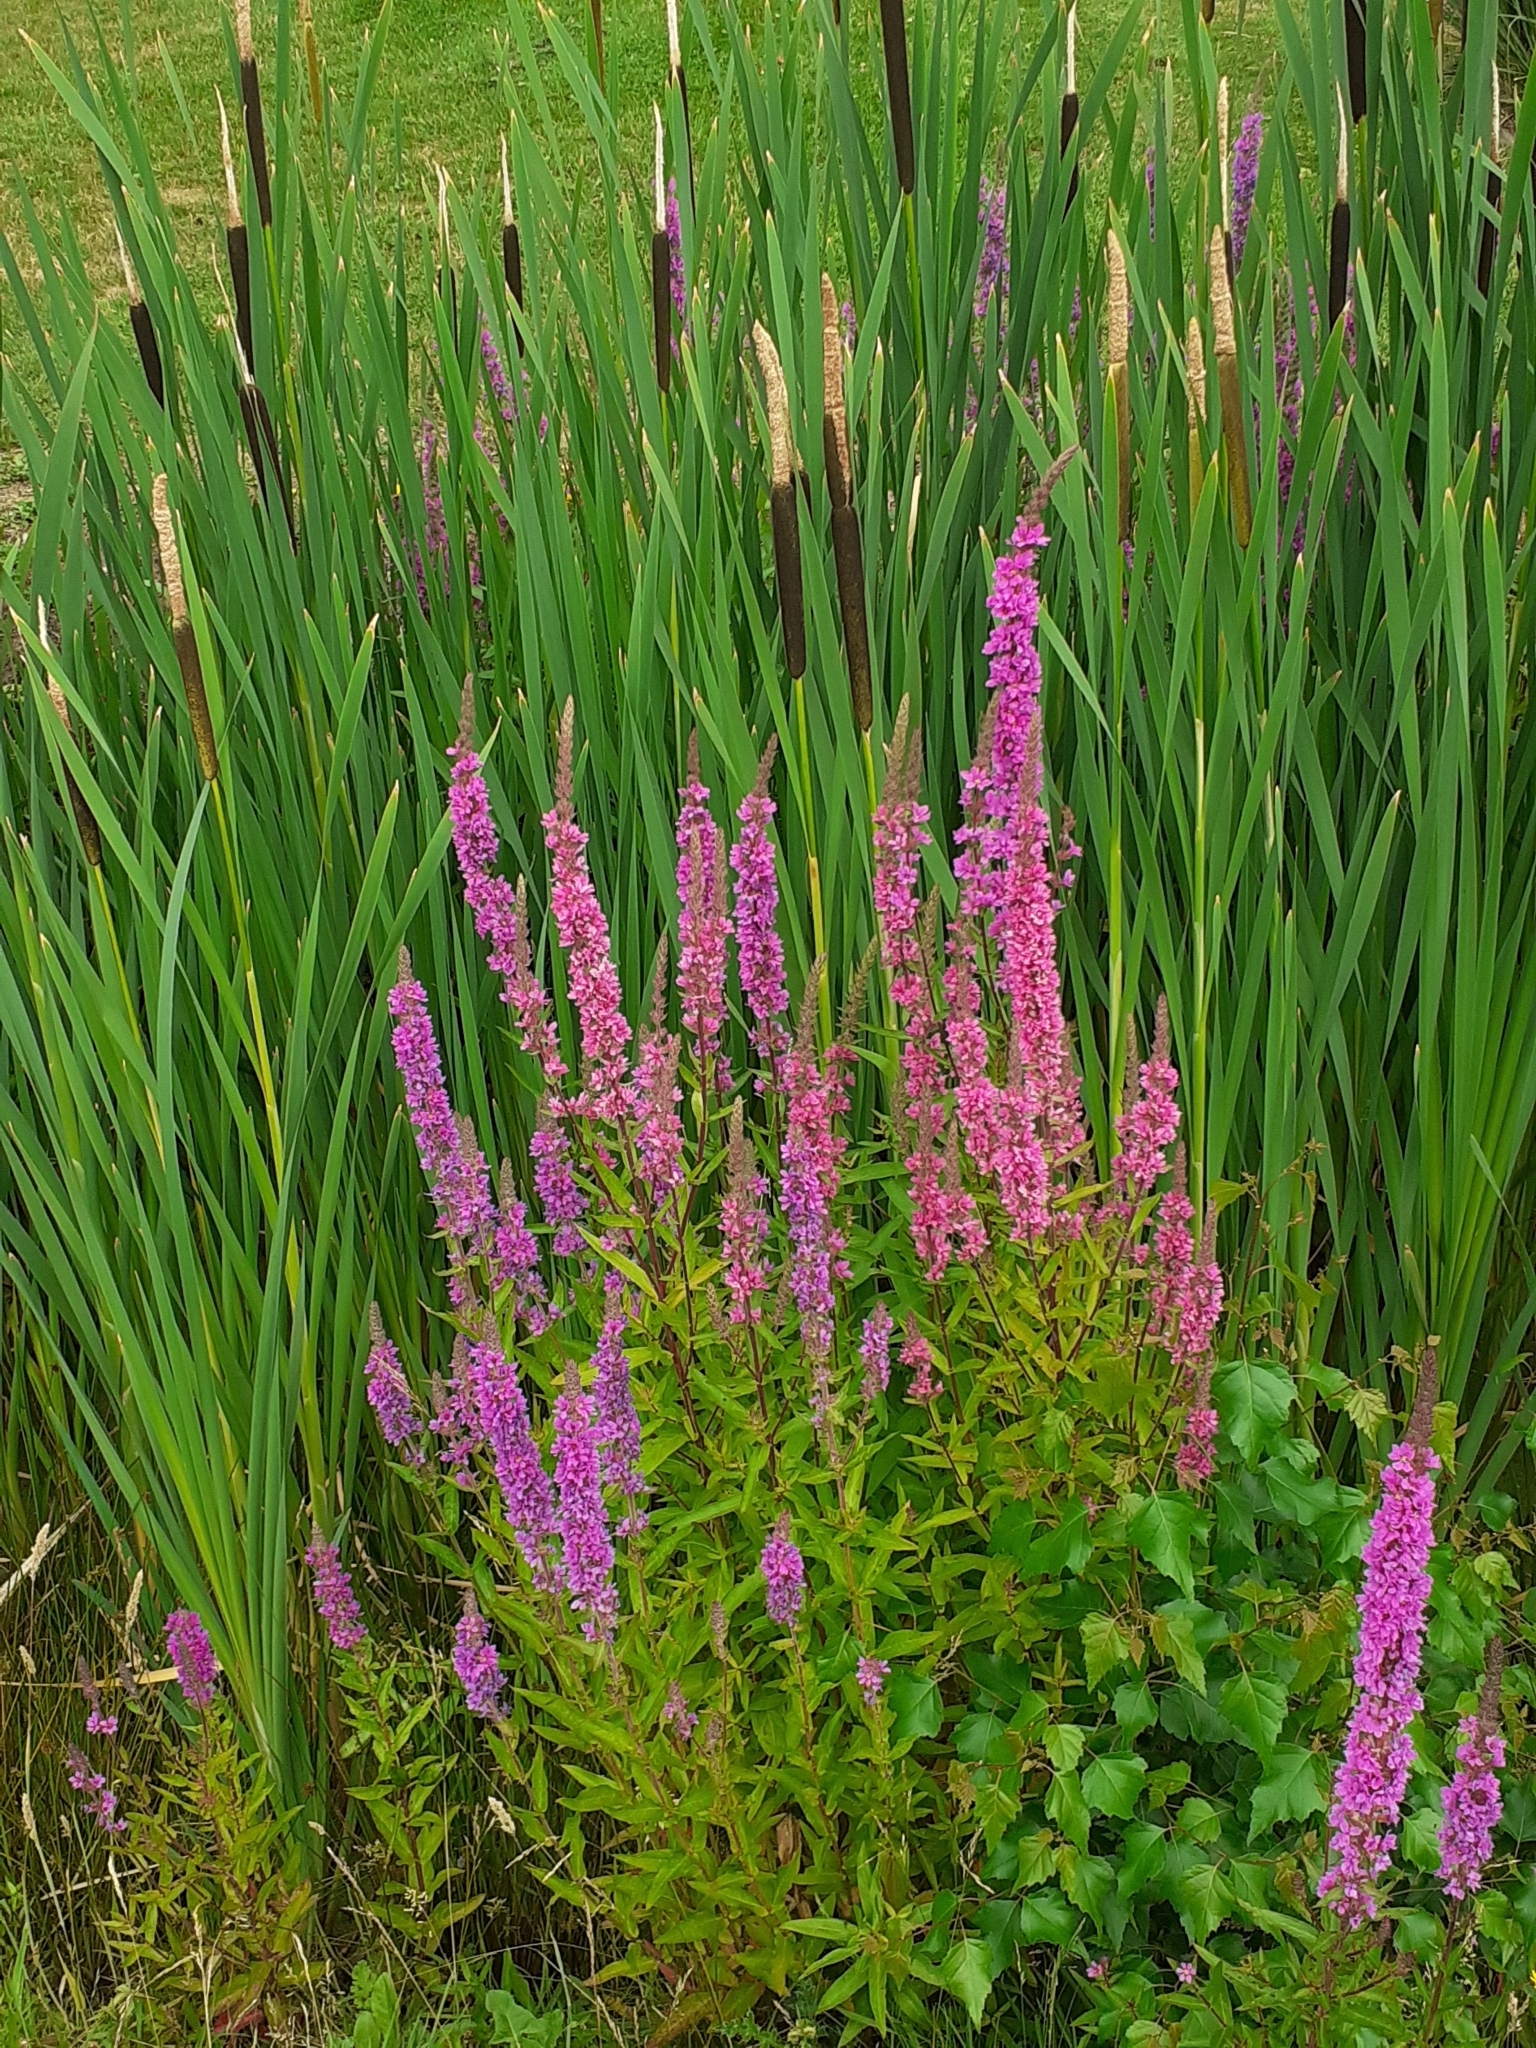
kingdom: Plantae
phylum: Tracheophyta
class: Magnoliopsida
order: Myrtales
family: Lythraceae
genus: Lythrum
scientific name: Lythrum salicaria
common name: Purple loosestrife
